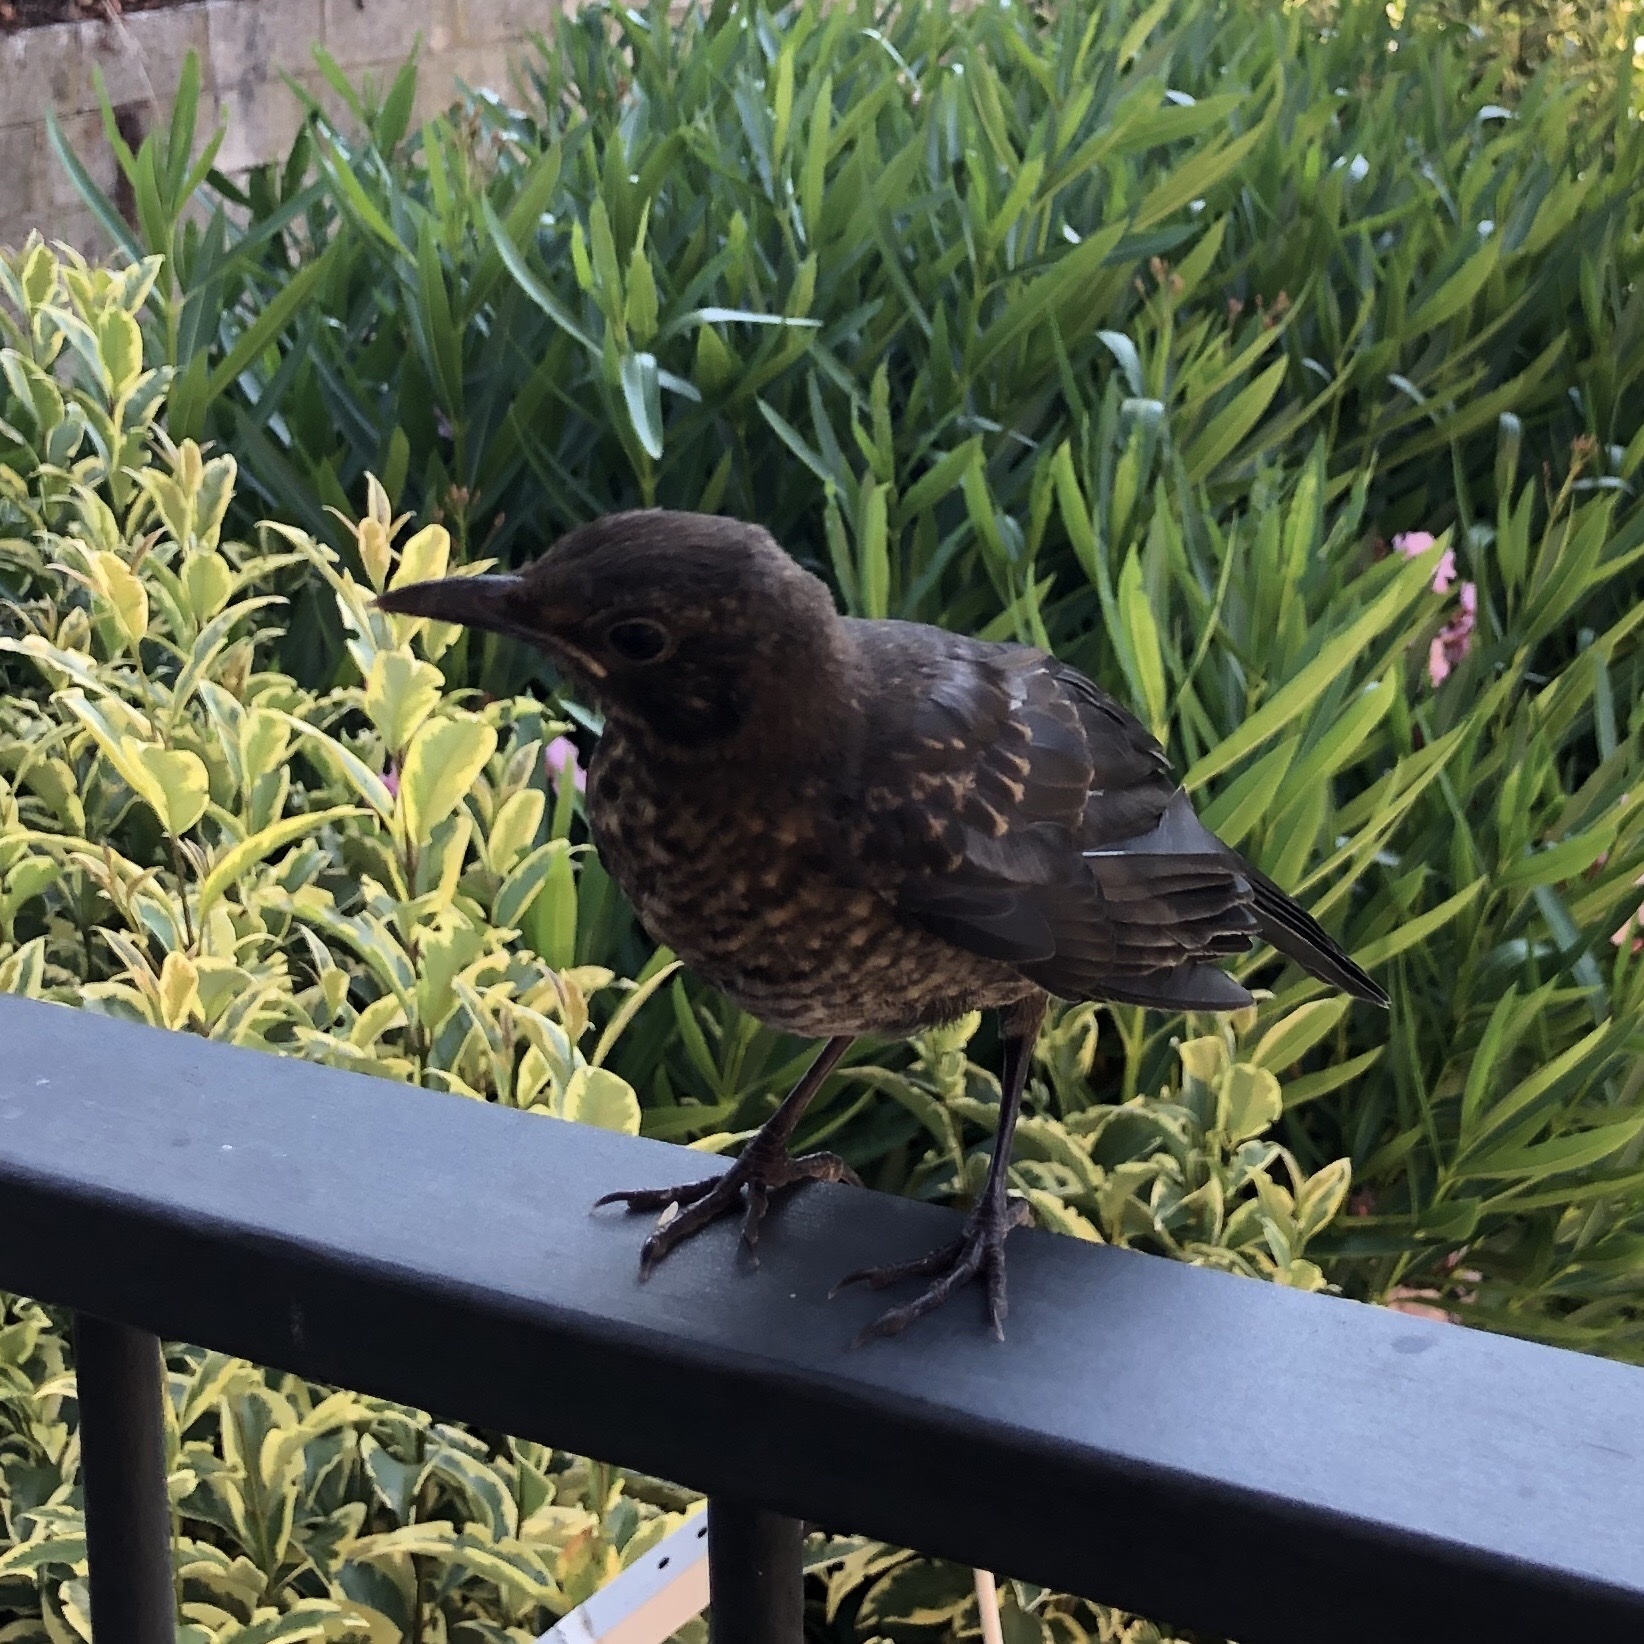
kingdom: Animalia
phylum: Chordata
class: Aves
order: Passeriformes
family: Turdidae
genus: Turdus
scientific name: Turdus merula
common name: Common blackbird
